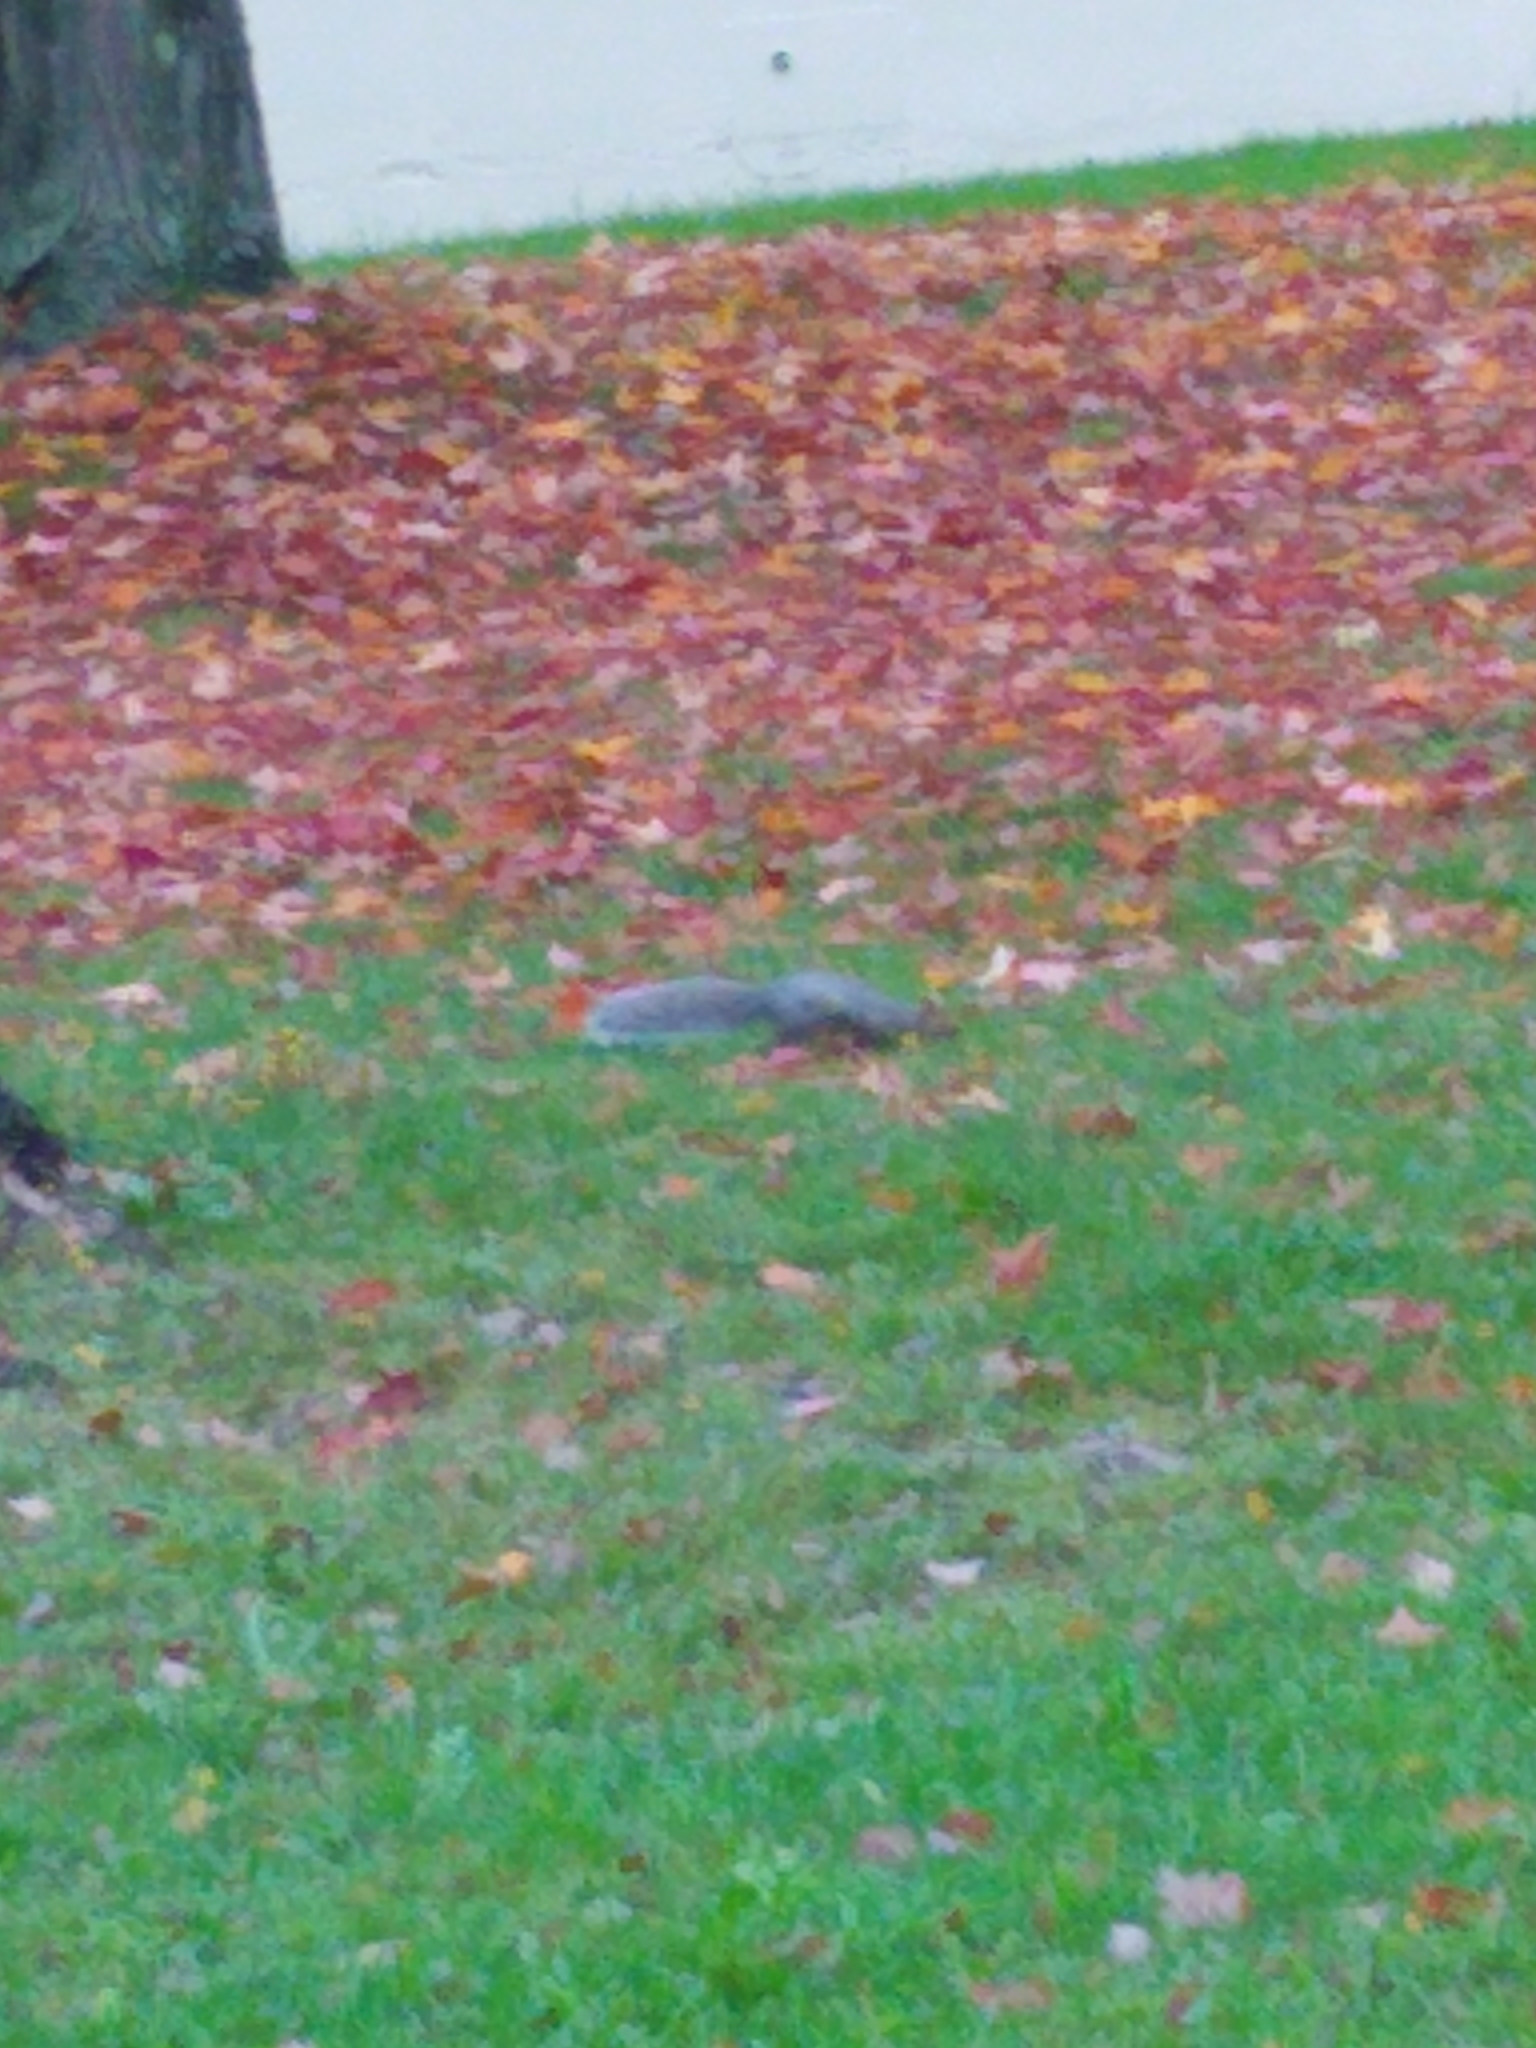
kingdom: Animalia
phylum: Chordata
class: Mammalia
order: Rodentia
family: Sciuridae
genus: Sciurus
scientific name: Sciurus carolinensis
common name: Eastern gray squirrel
